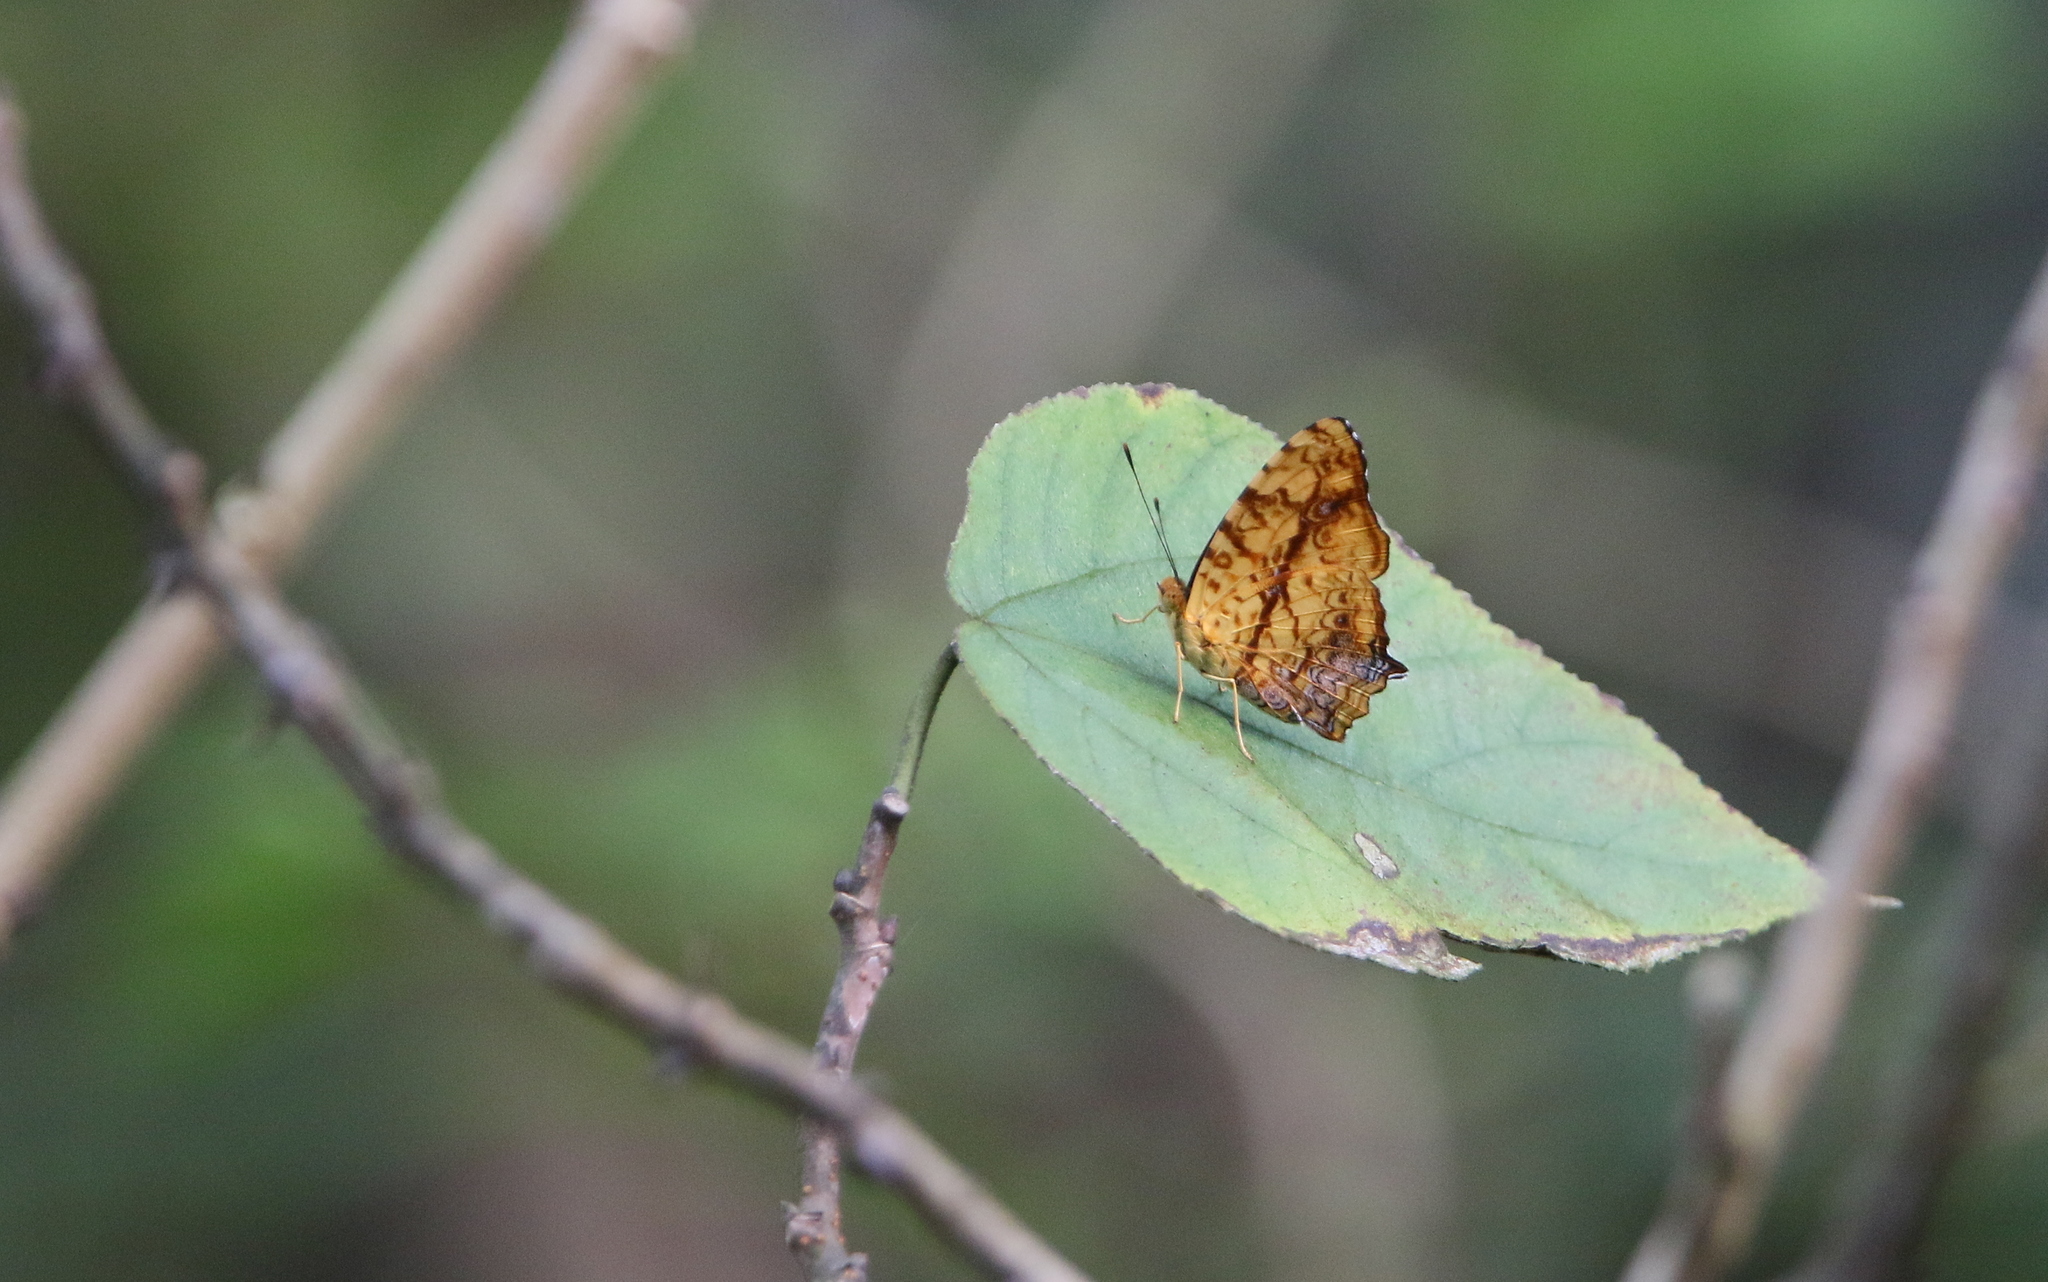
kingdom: Animalia
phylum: Arthropoda
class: Insecta
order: Lepidoptera
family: Nymphalidae
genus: Symbrenthia
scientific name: Symbrenthia hypselis
